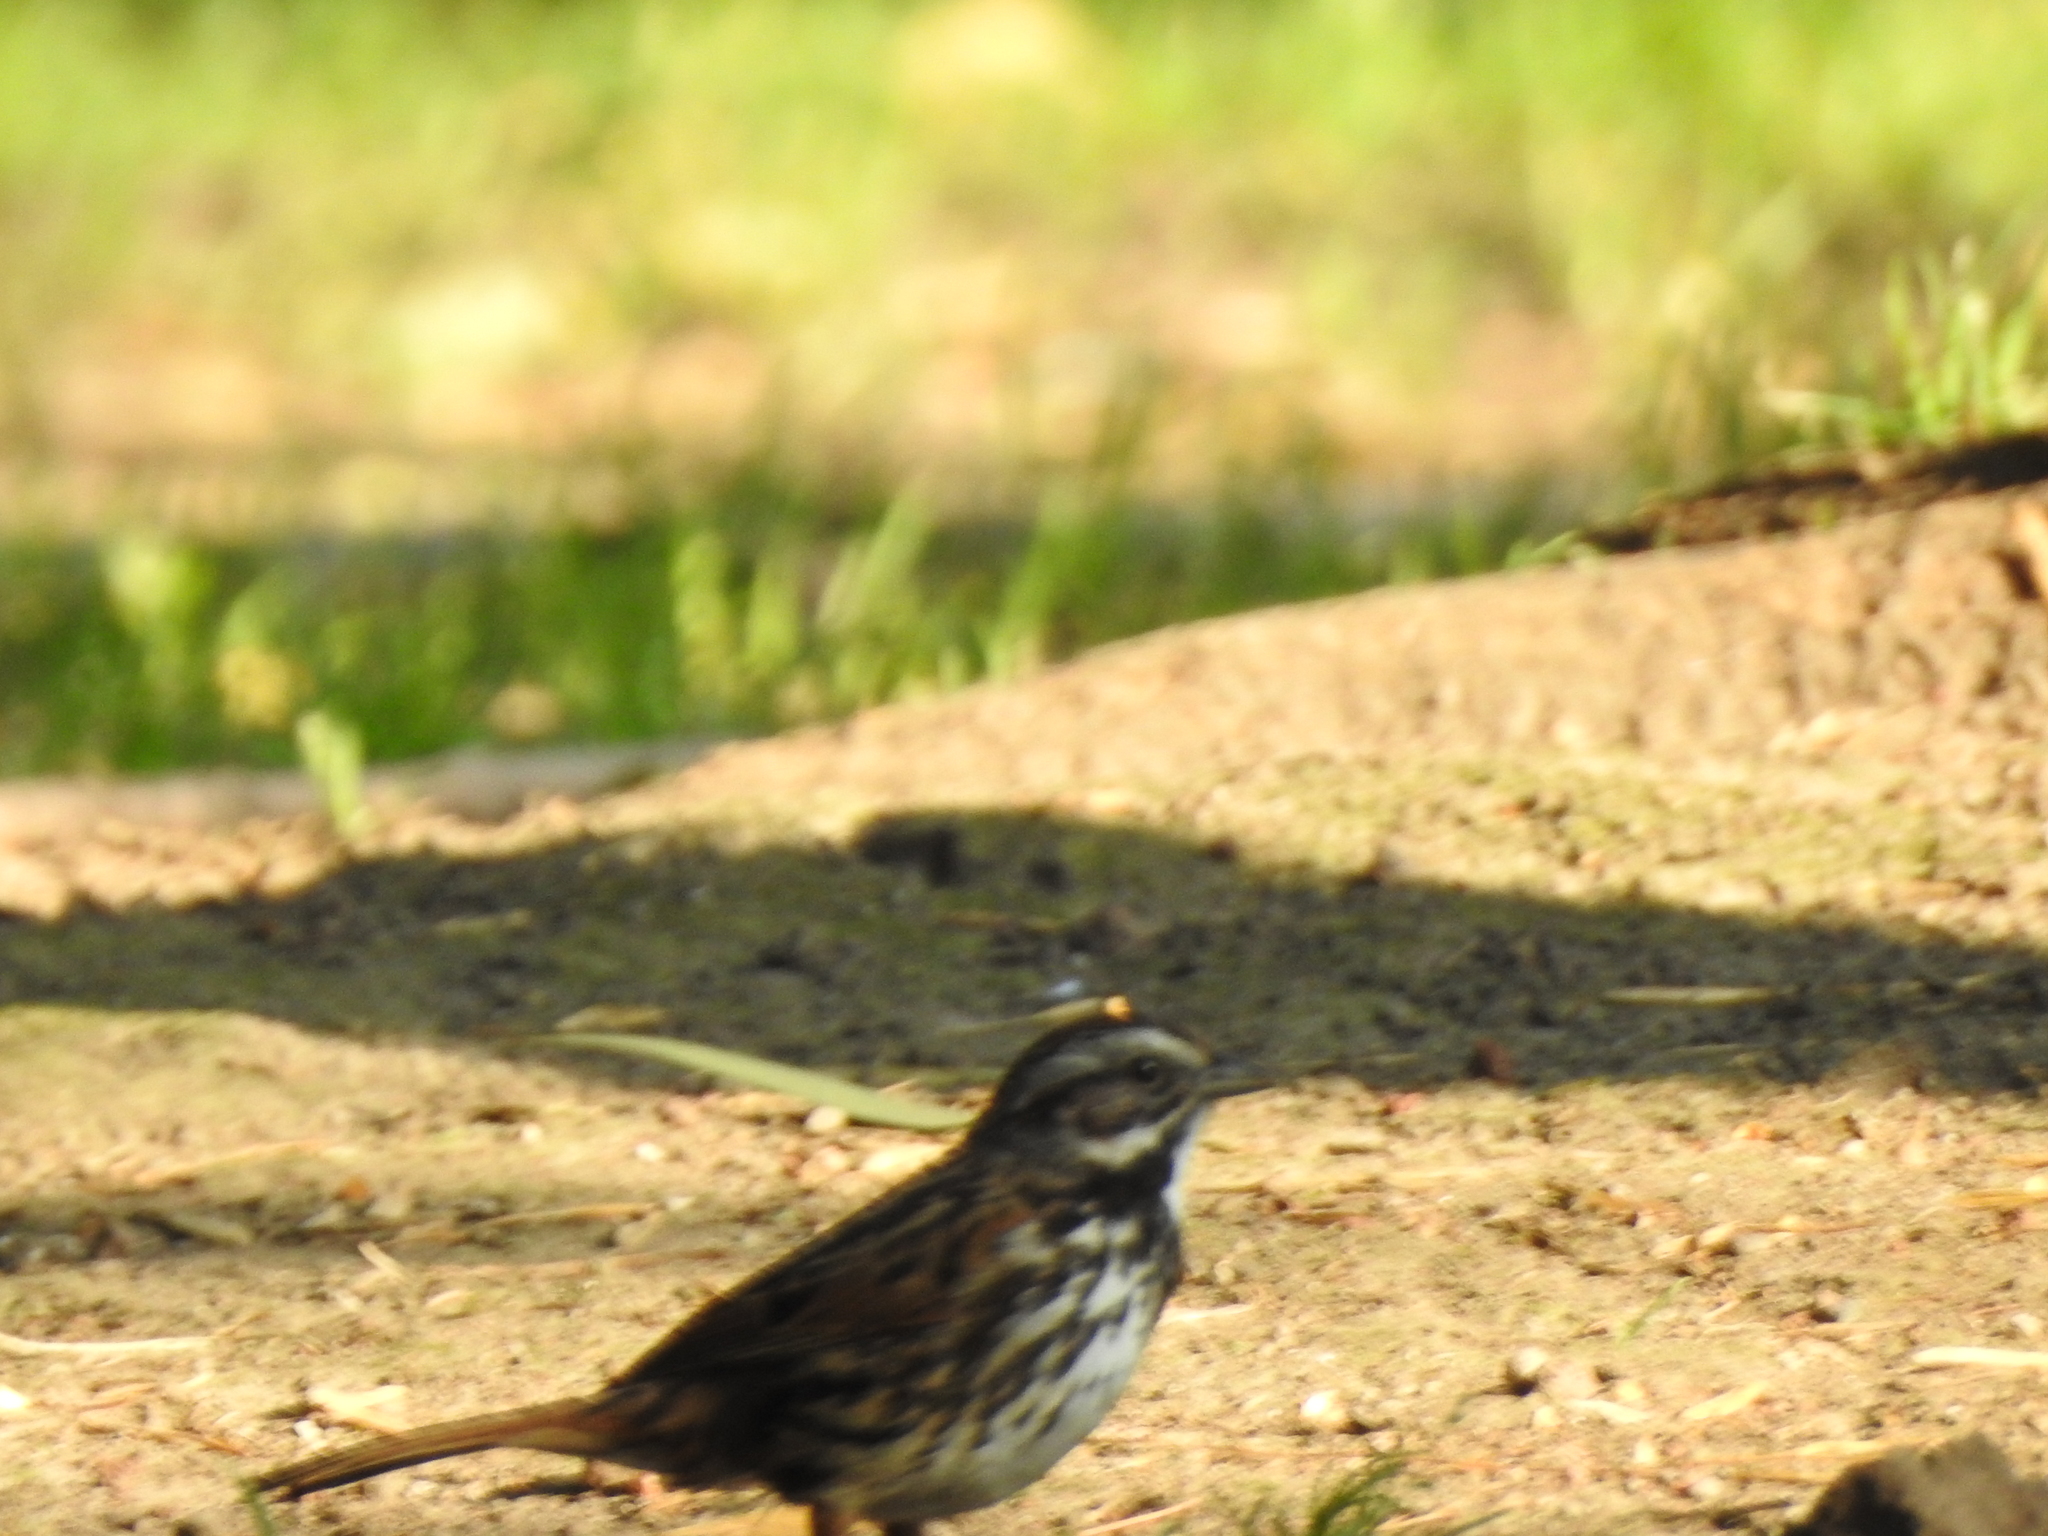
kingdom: Animalia
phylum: Chordata
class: Aves
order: Passeriformes
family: Passerellidae
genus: Melospiza
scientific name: Melospiza melodia
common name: Song sparrow
